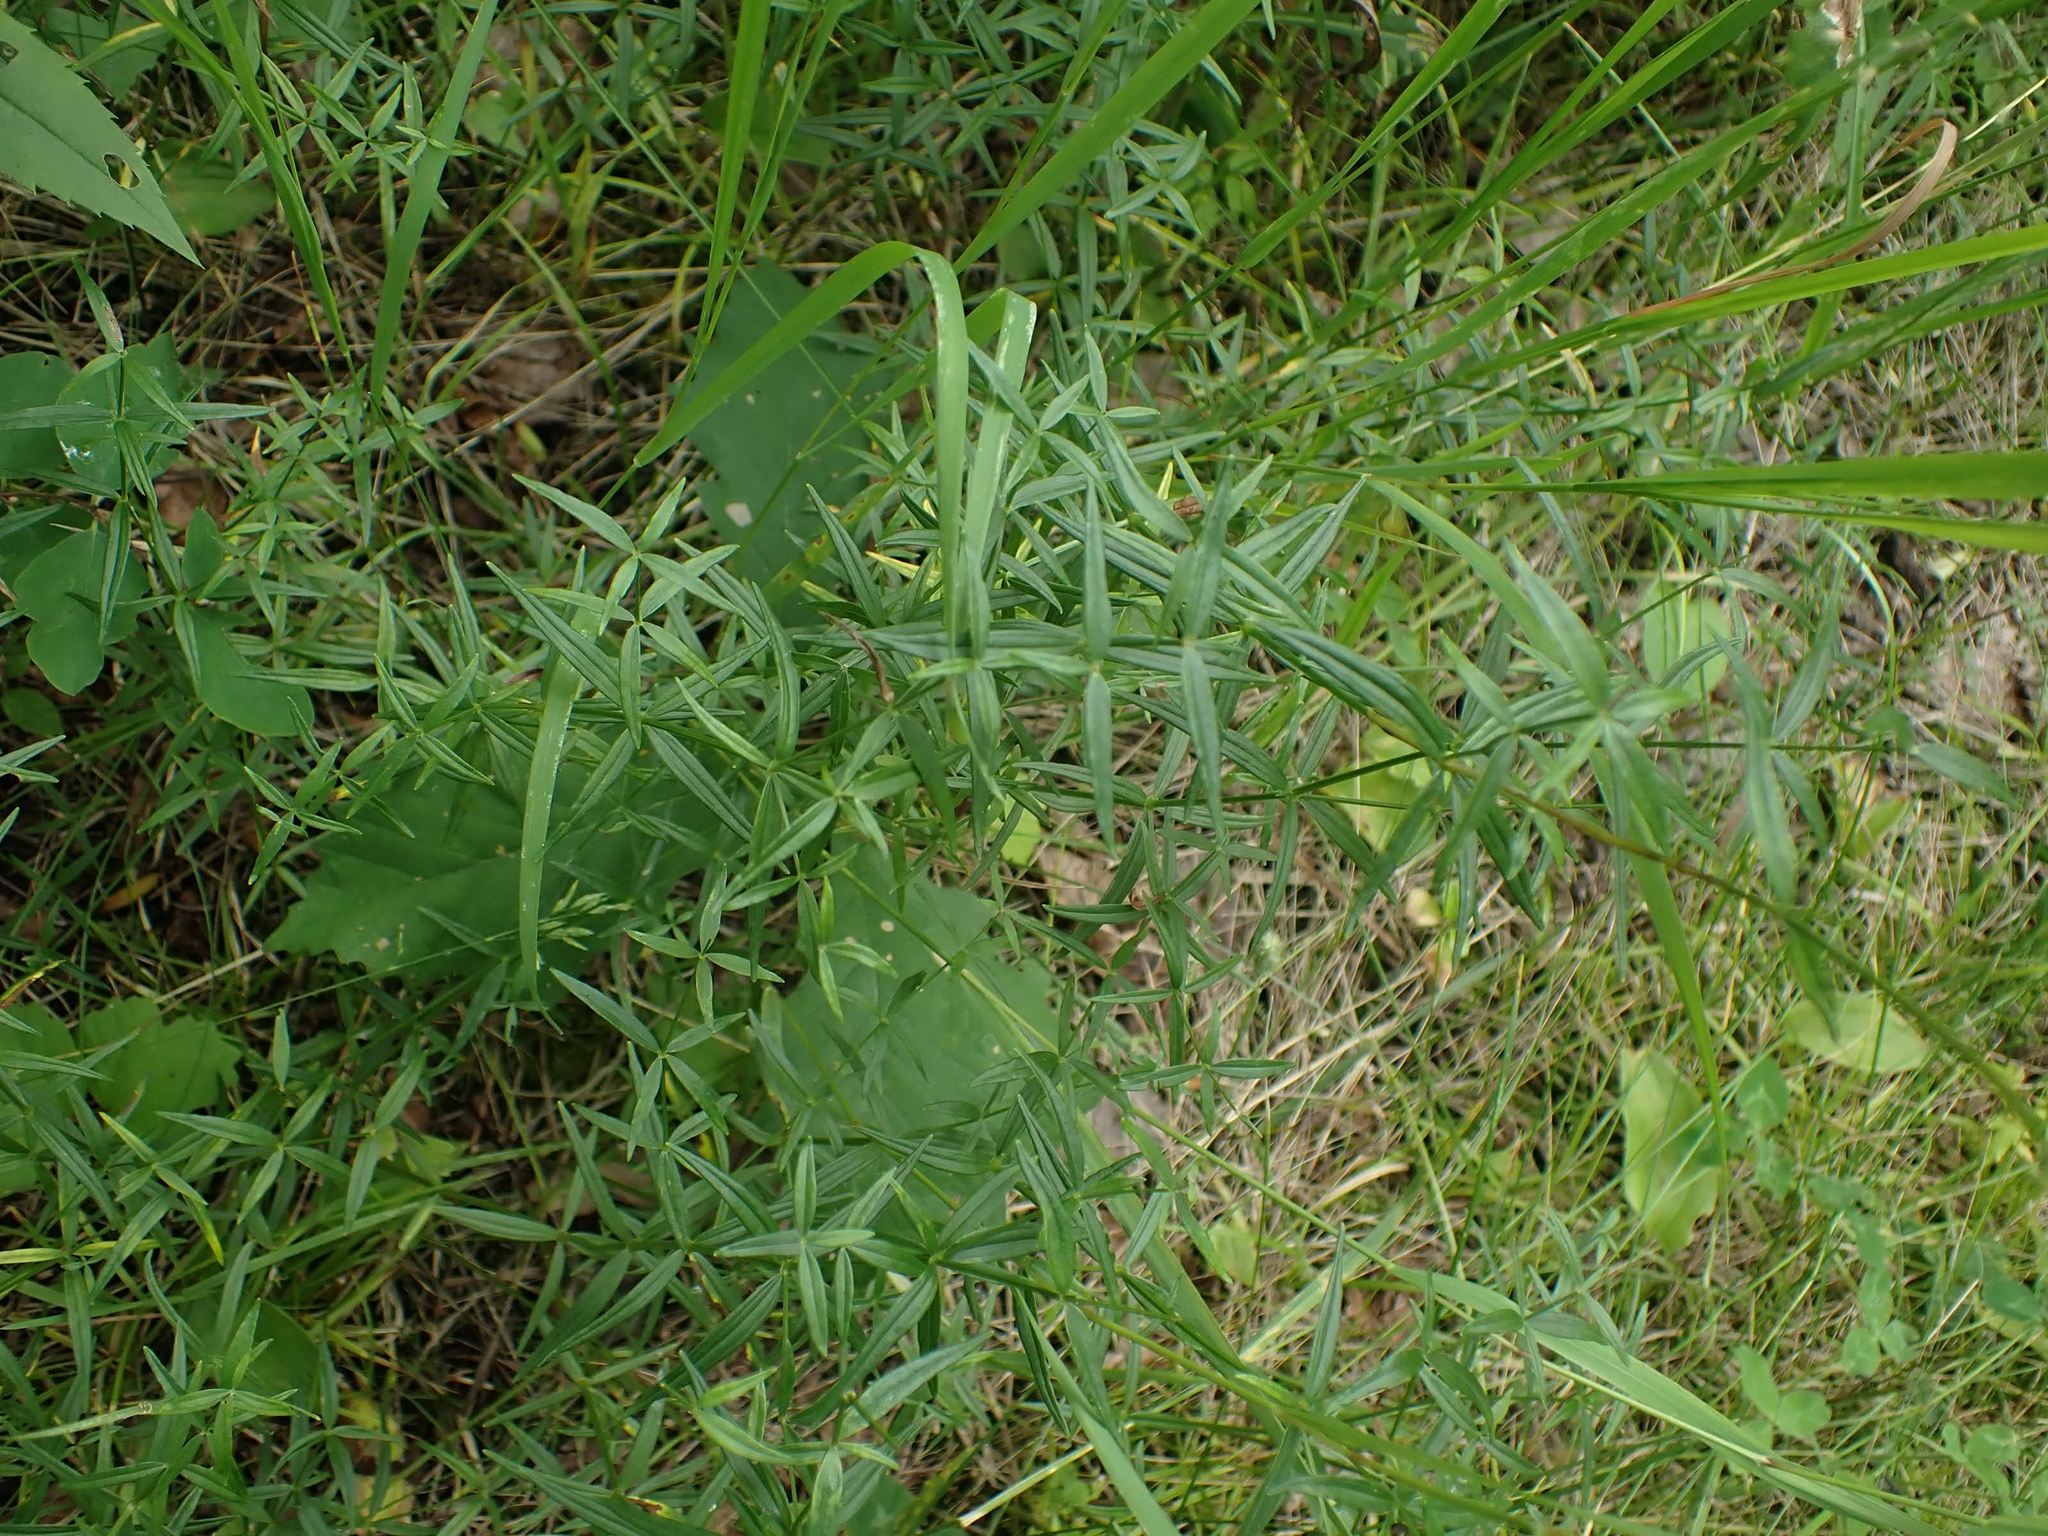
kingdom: Plantae
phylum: Tracheophyta
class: Magnoliopsida
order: Gentianales
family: Rubiaceae
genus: Galium
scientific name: Galium boreale
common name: Northern bedstraw
